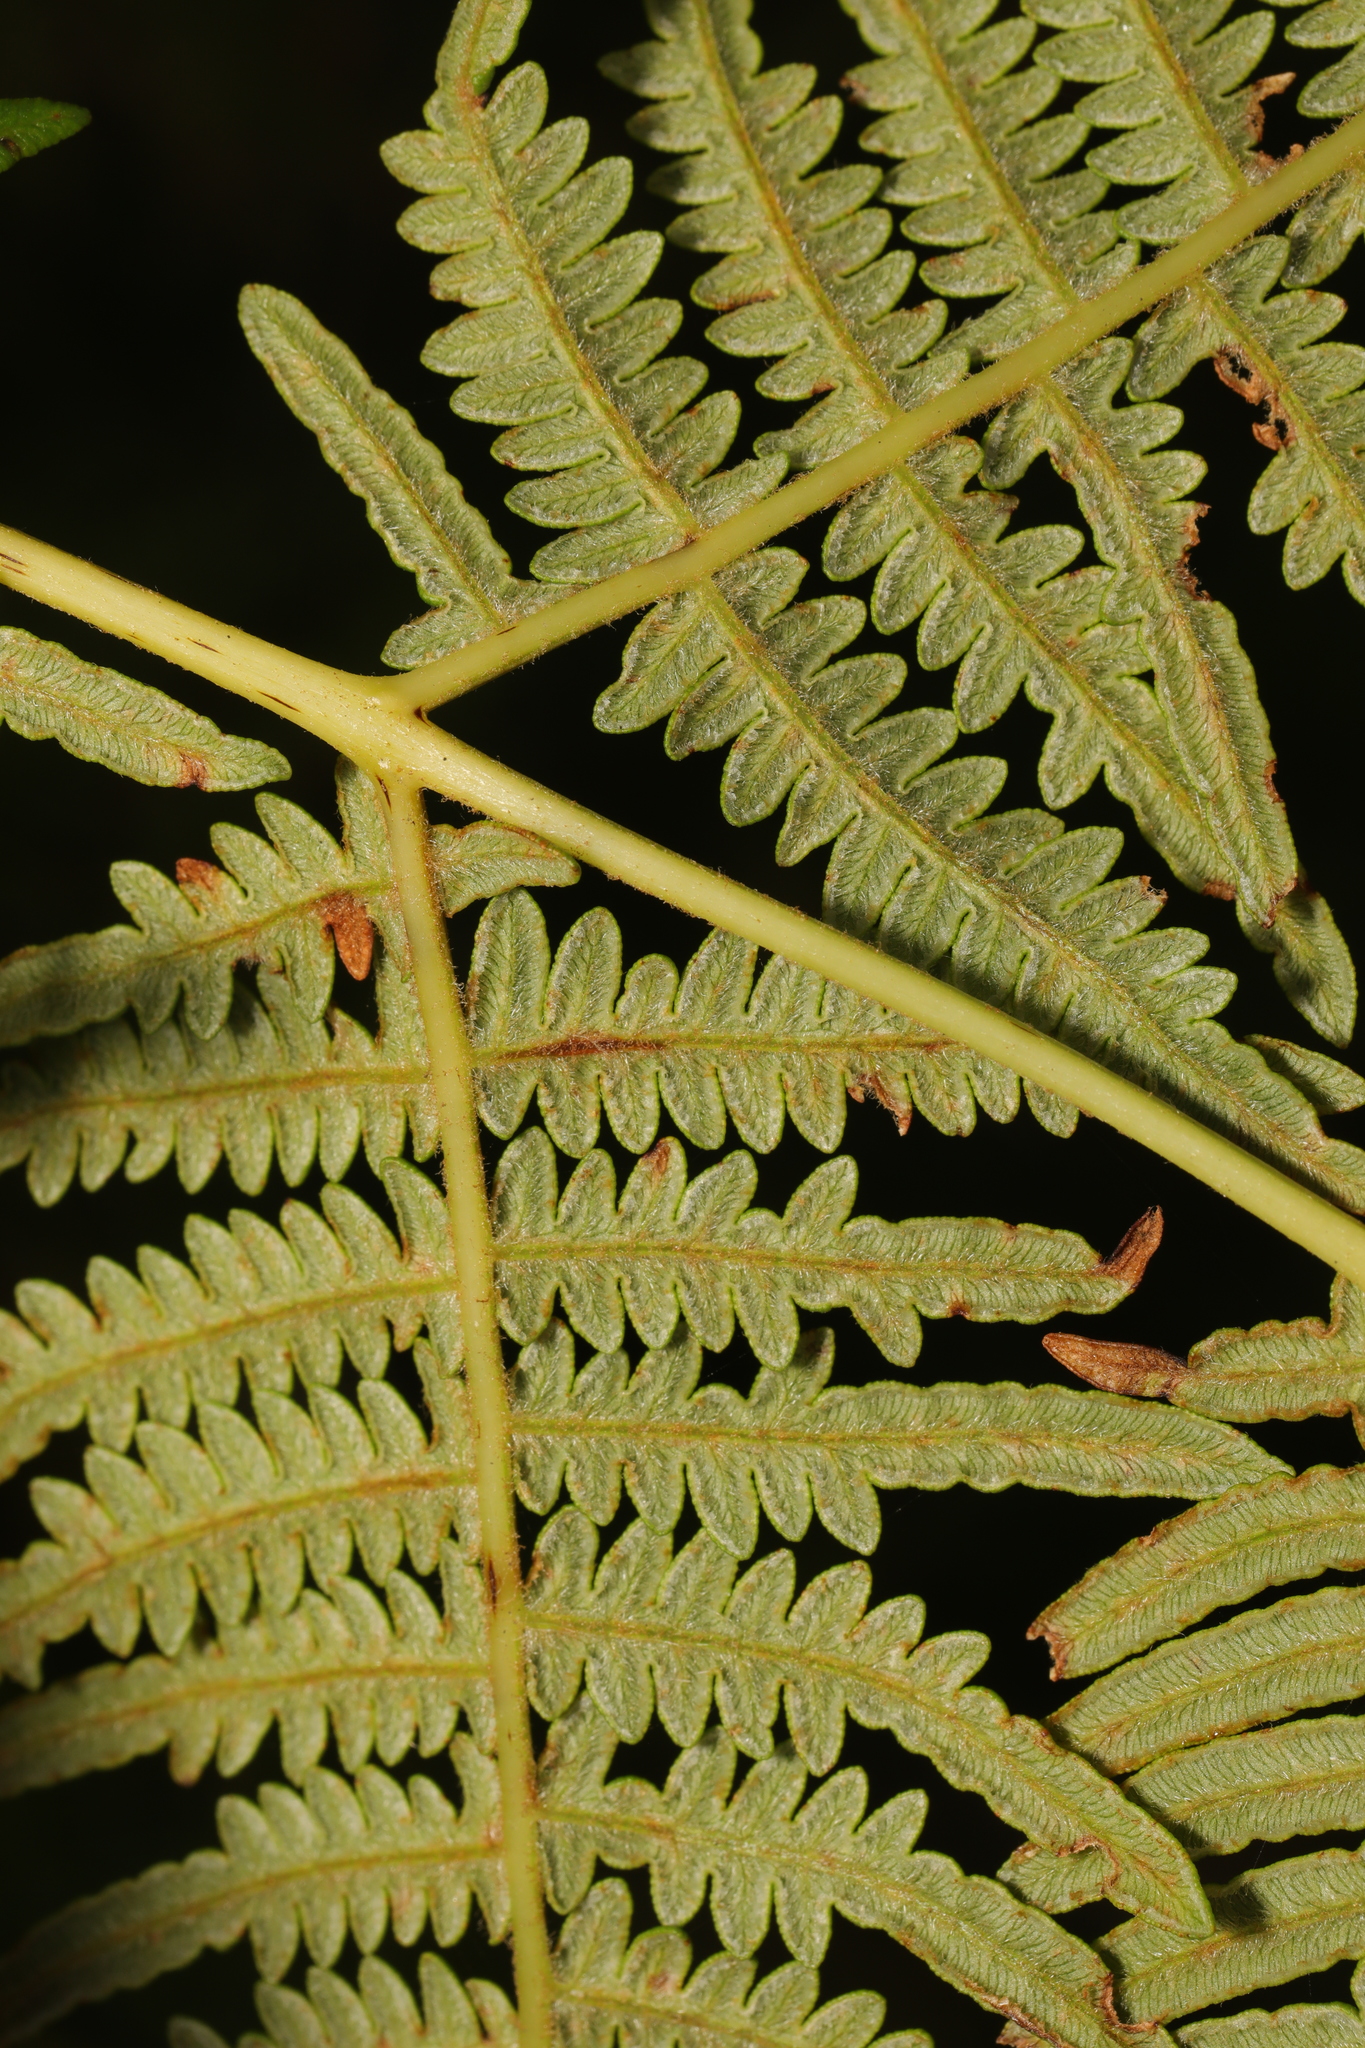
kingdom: Plantae
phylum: Tracheophyta
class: Polypodiopsida
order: Polypodiales
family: Dennstaedtiaceae
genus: Pteridium
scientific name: Pteridium aquilinum
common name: Bracken
